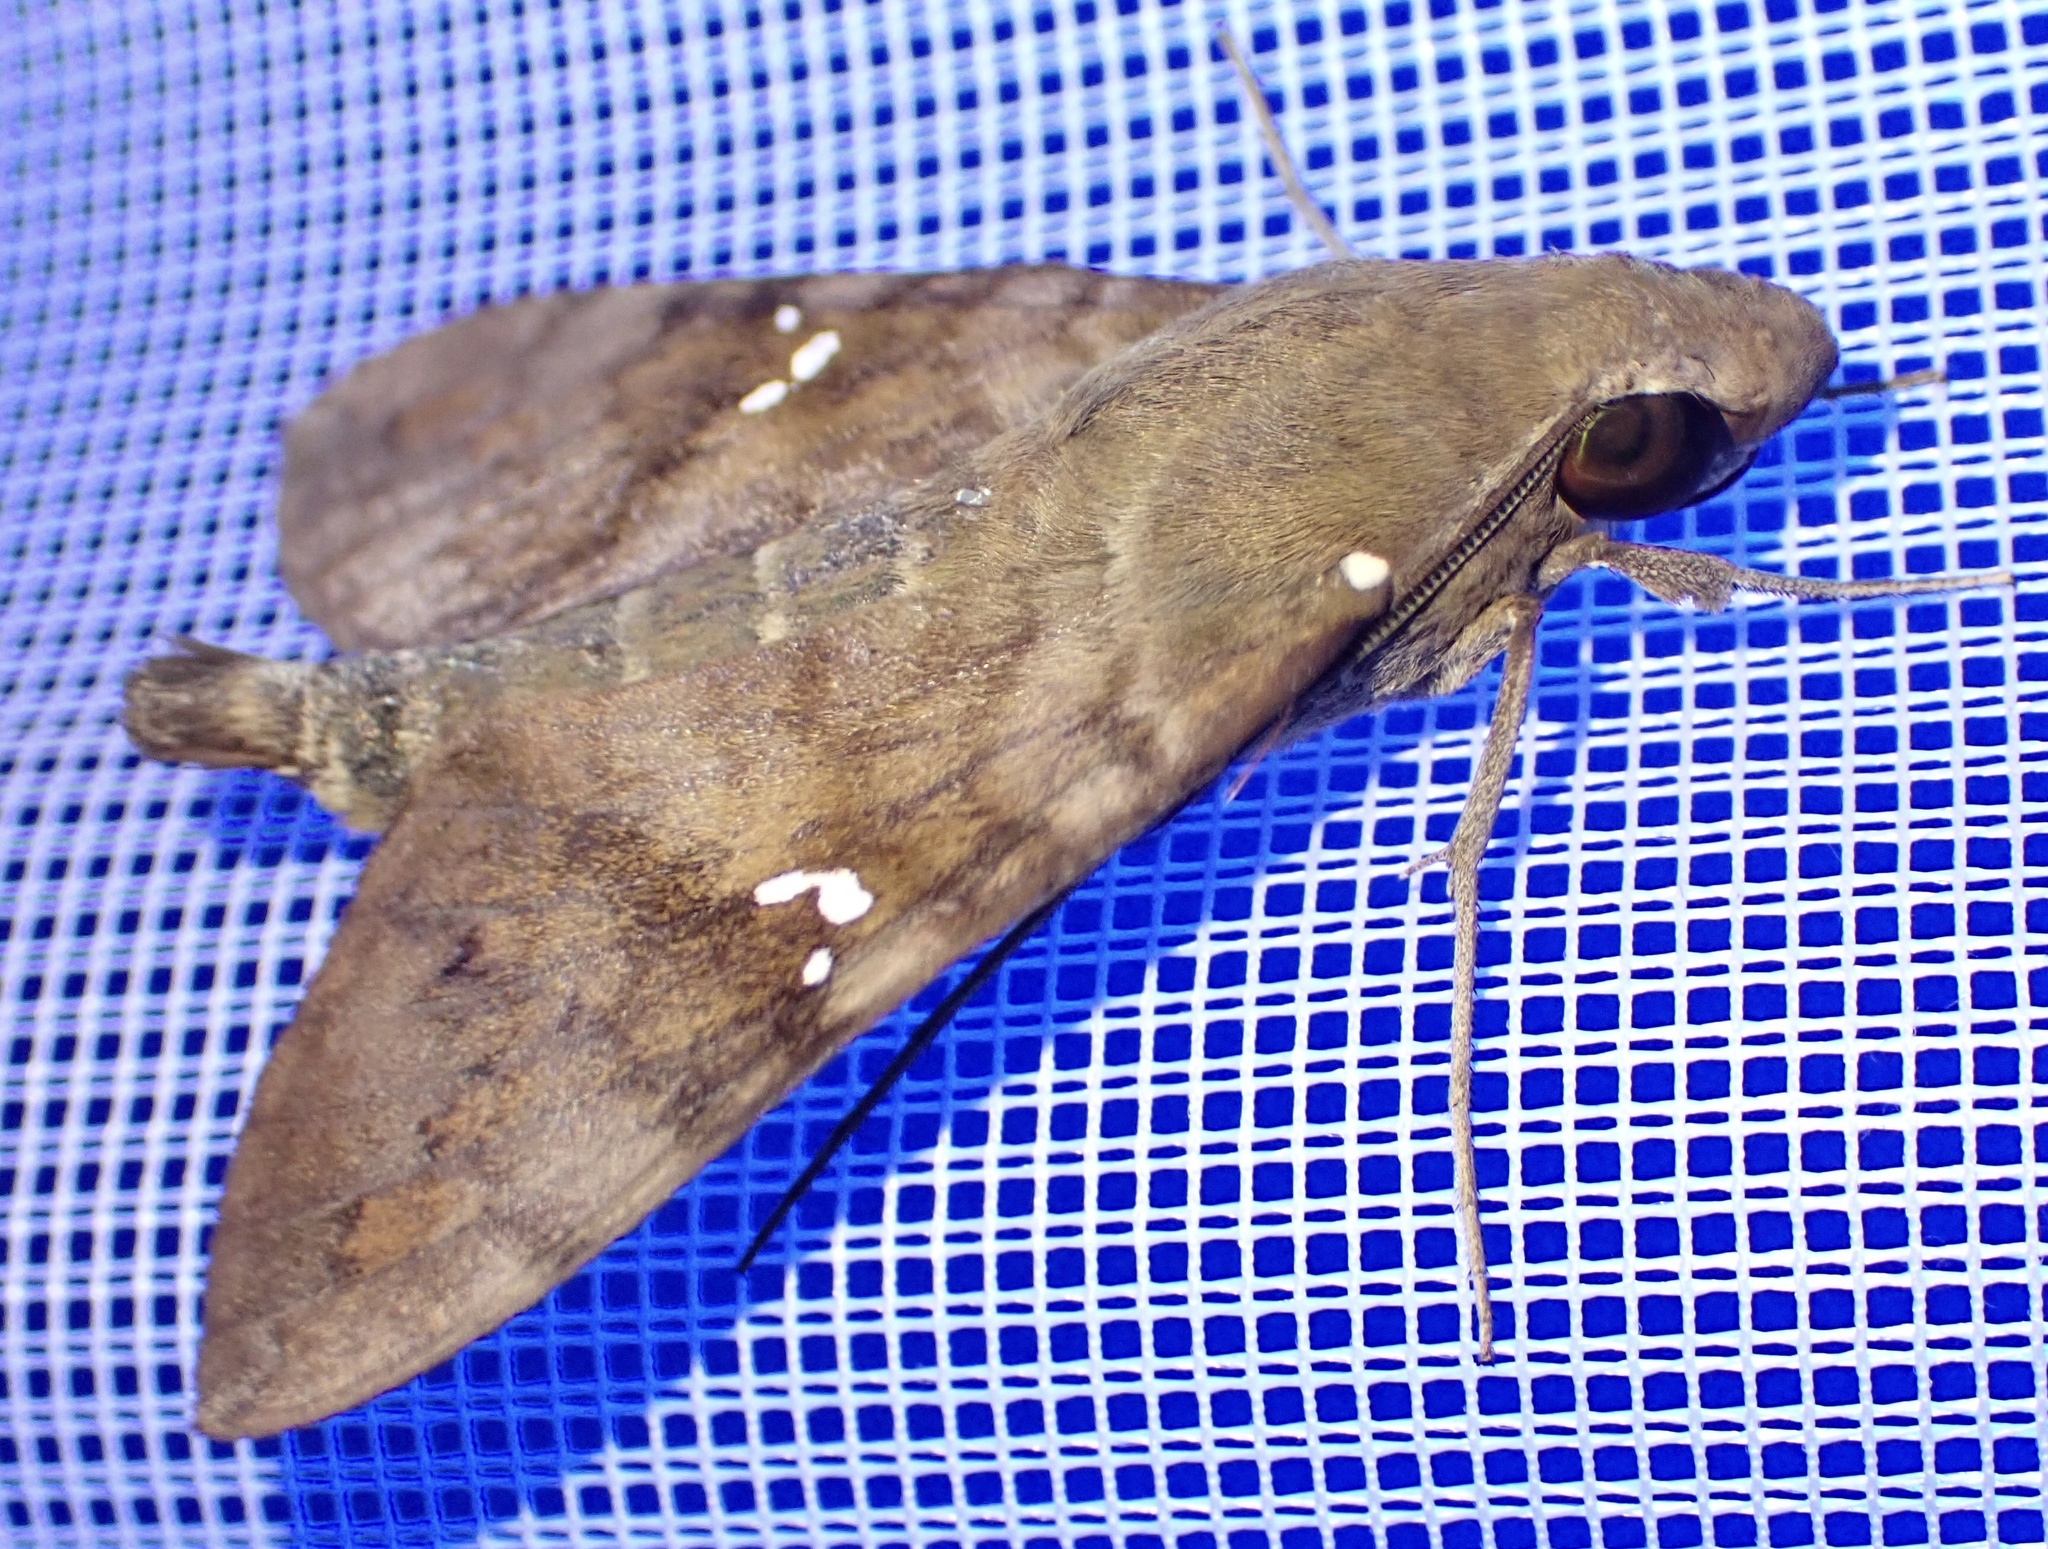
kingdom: Animalia
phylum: Arthropoda
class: Insecta
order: Lepidoptera
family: Sphingidae
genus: Nephele
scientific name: Nephele peneus
